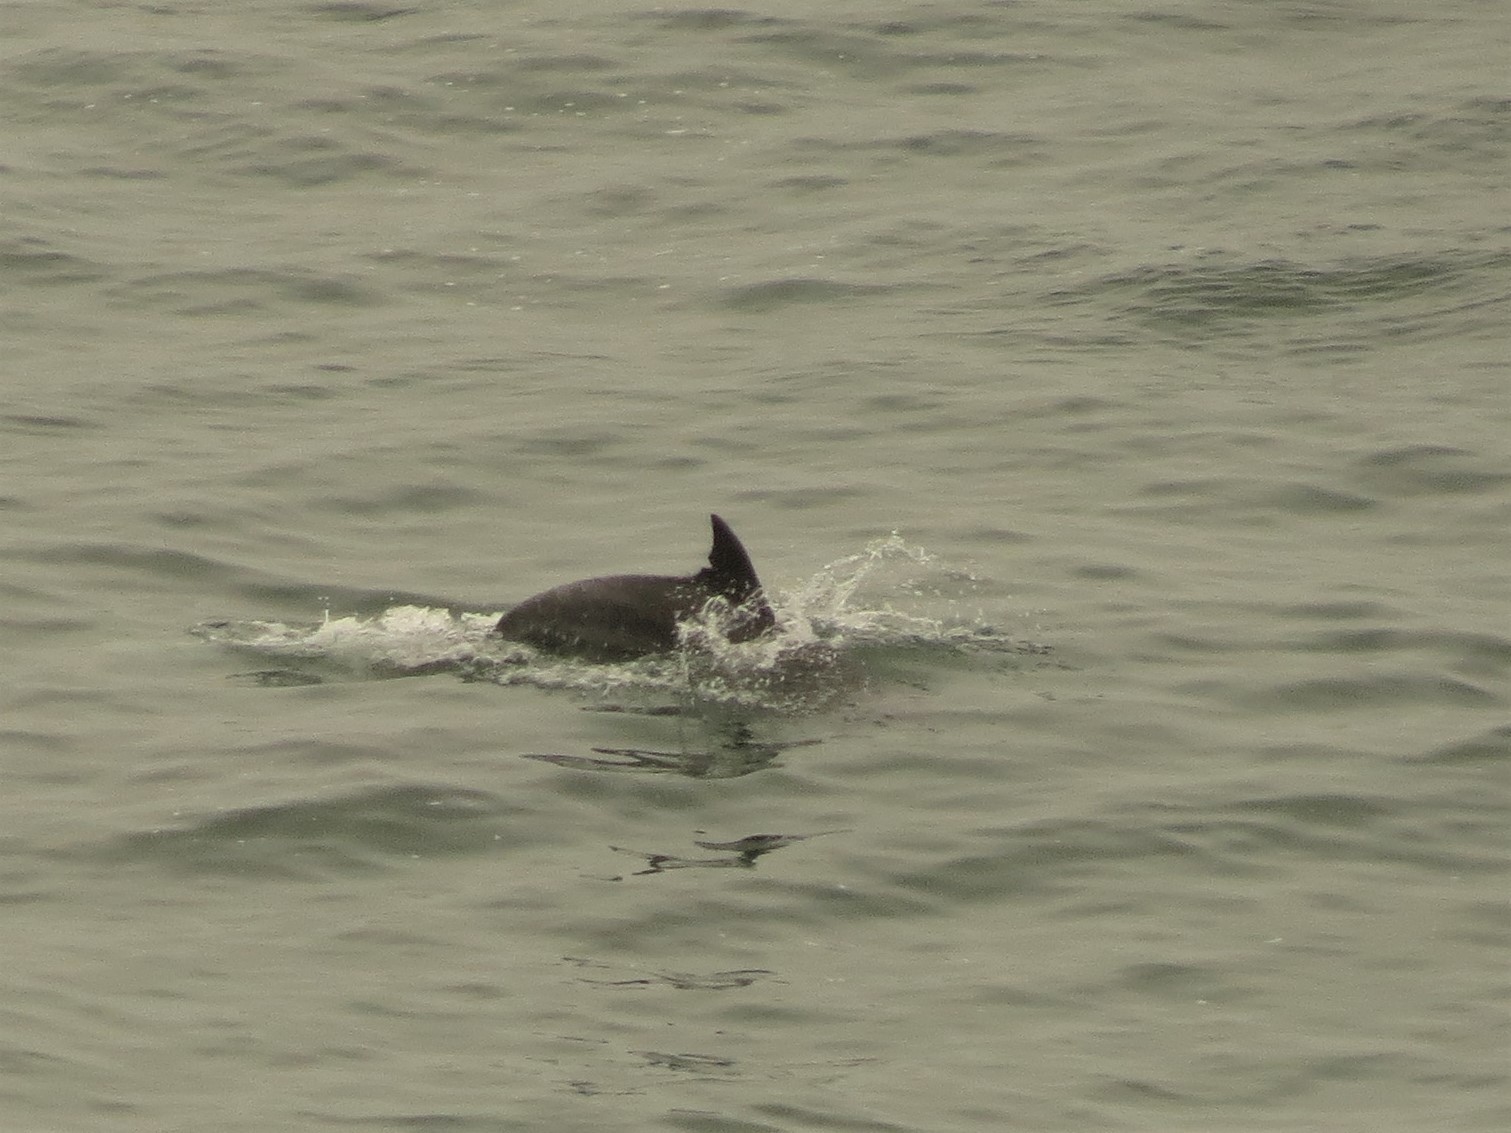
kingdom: Animalia
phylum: Chordata
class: Mammalia
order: Cetacea
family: Delphinidae
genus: Tursiops
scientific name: Tursiops truncatus
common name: Bottlenose dolphin
